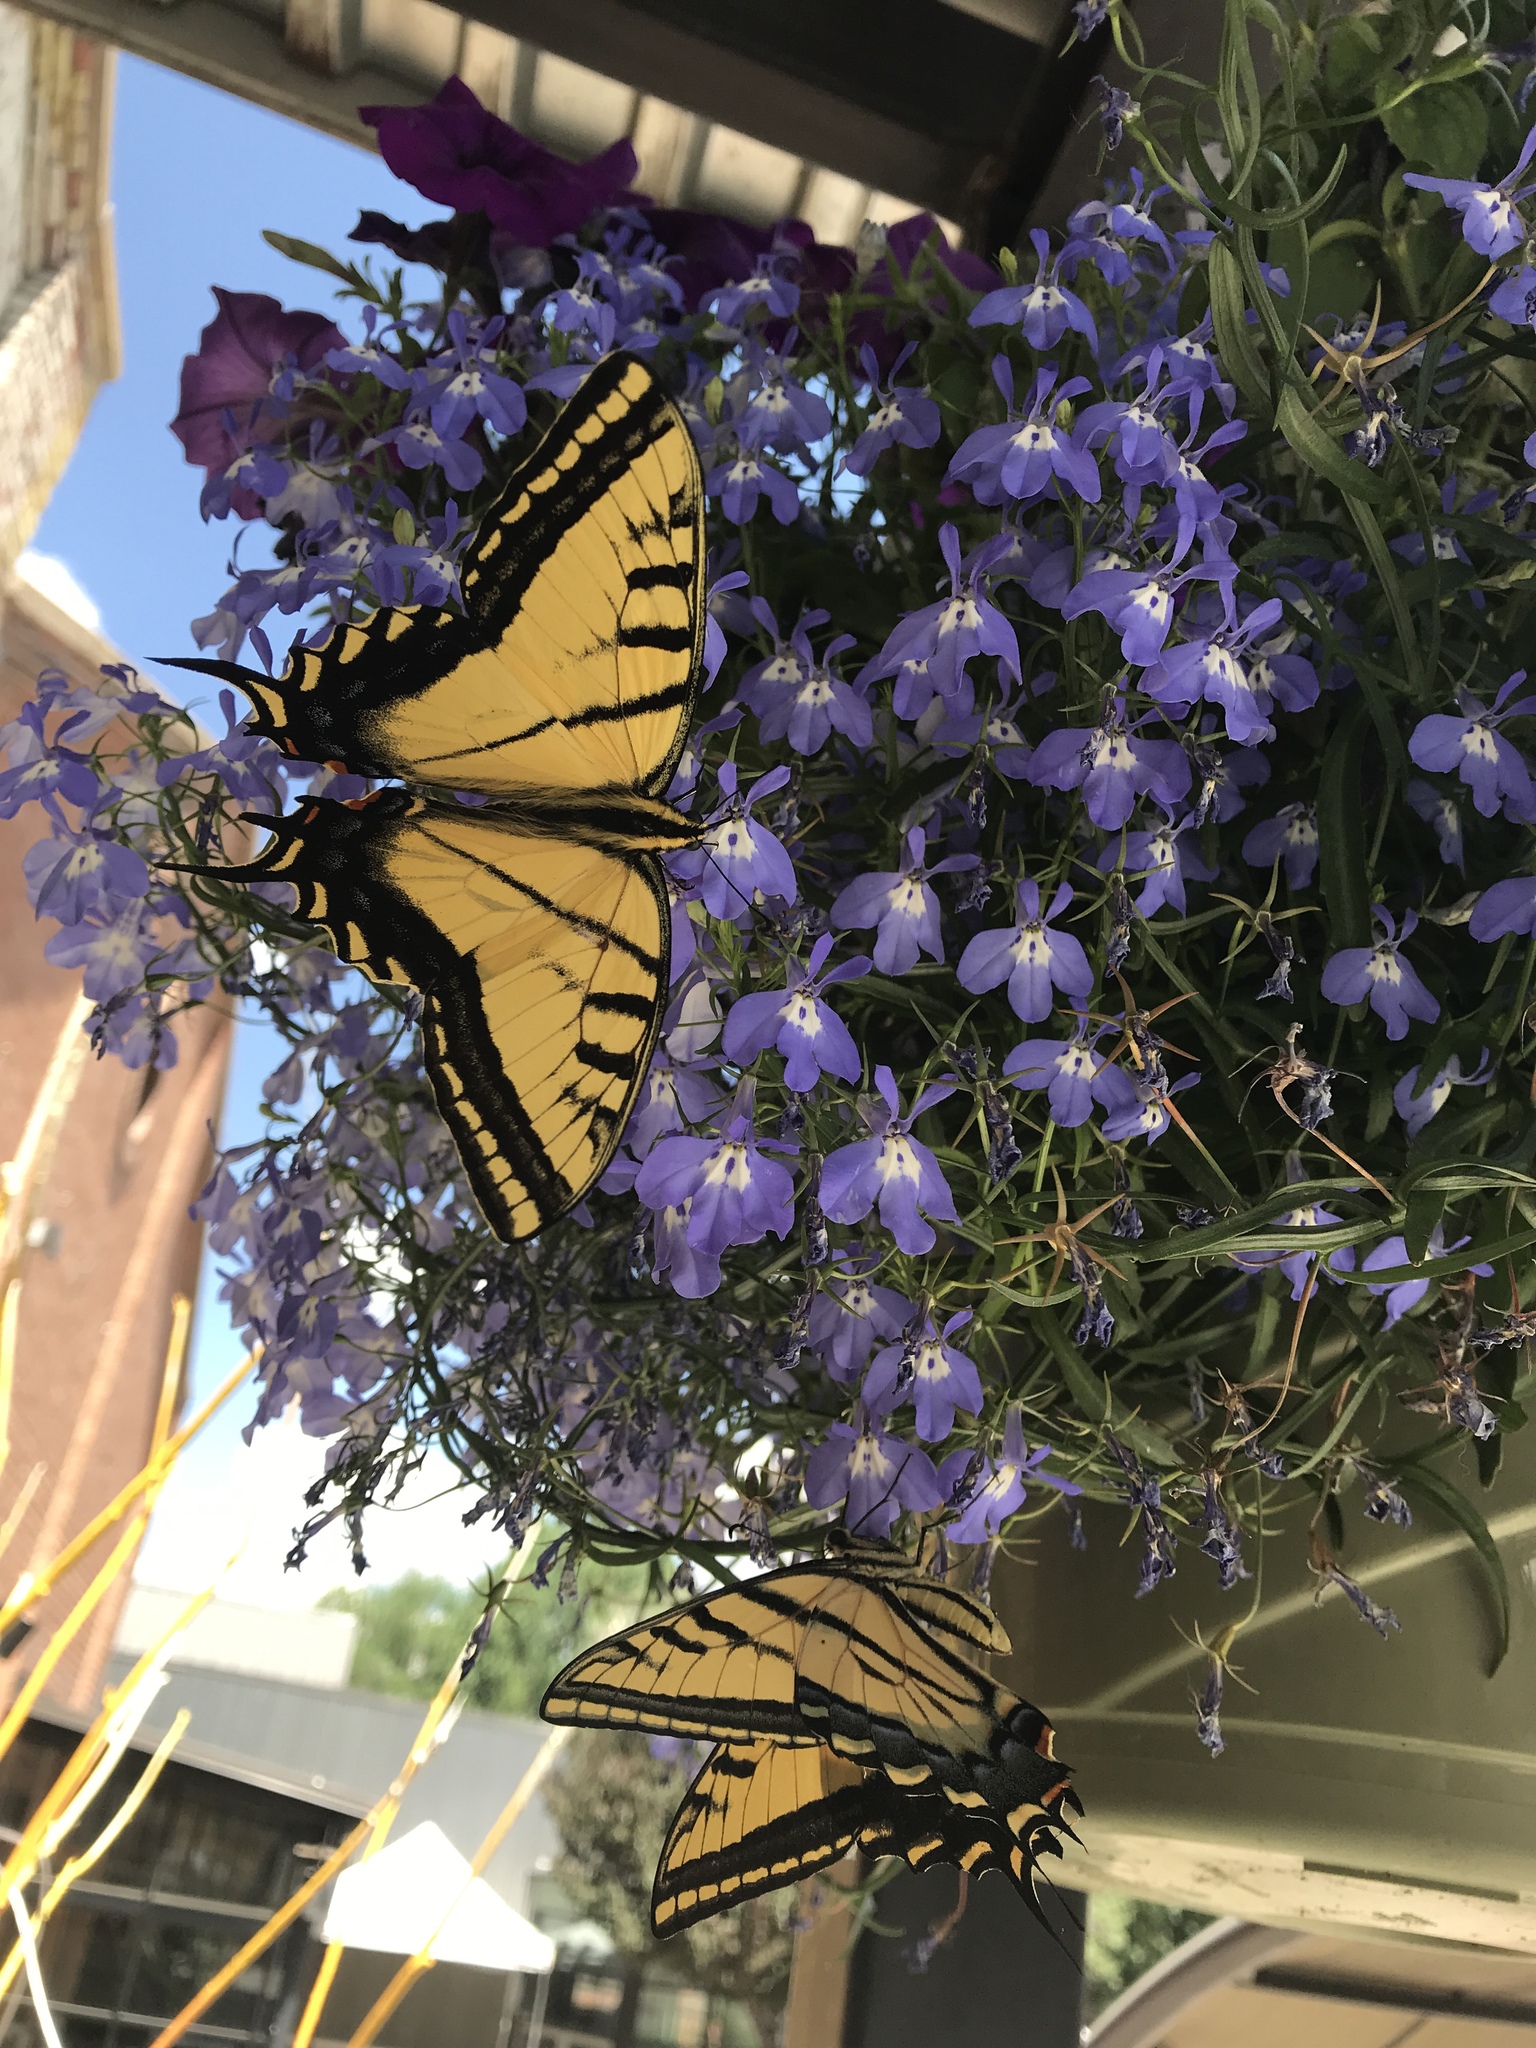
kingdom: Animalia
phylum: Arthropoda
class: Insecta
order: Lepidoptera
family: Papilionidae
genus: Papilio
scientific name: Papilio multicaudata
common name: Two-tailed tiger swallowtail
